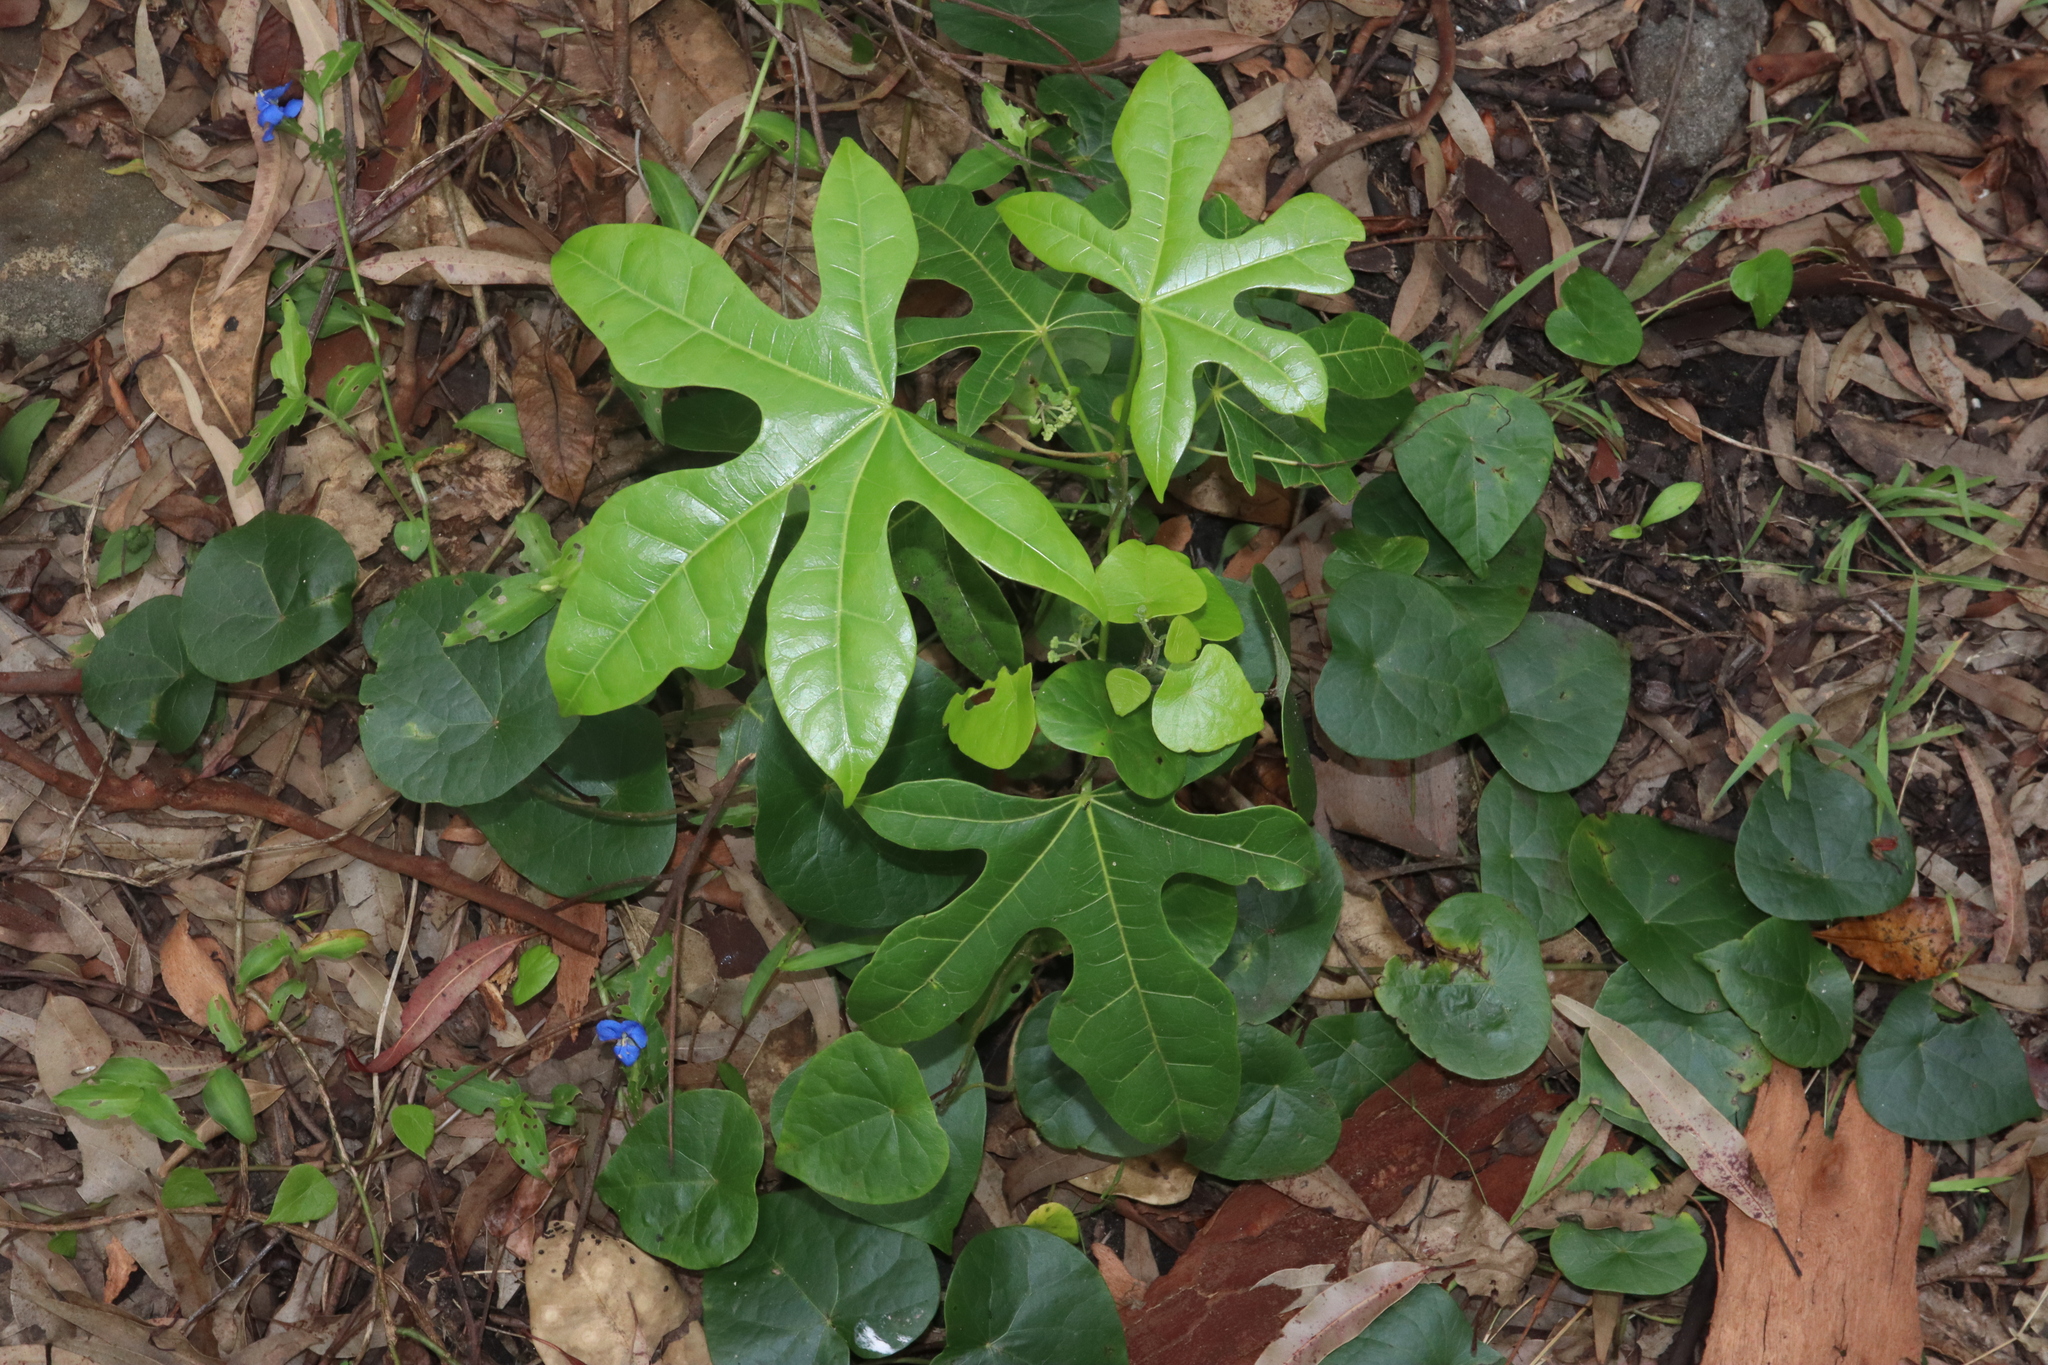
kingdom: Plantae
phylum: Tracheophyta
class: Magnoliopsida
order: Malvales
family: Malvaceae
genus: Brachychiton
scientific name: Brachychiton acerifolius
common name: Illawarra flame tree
